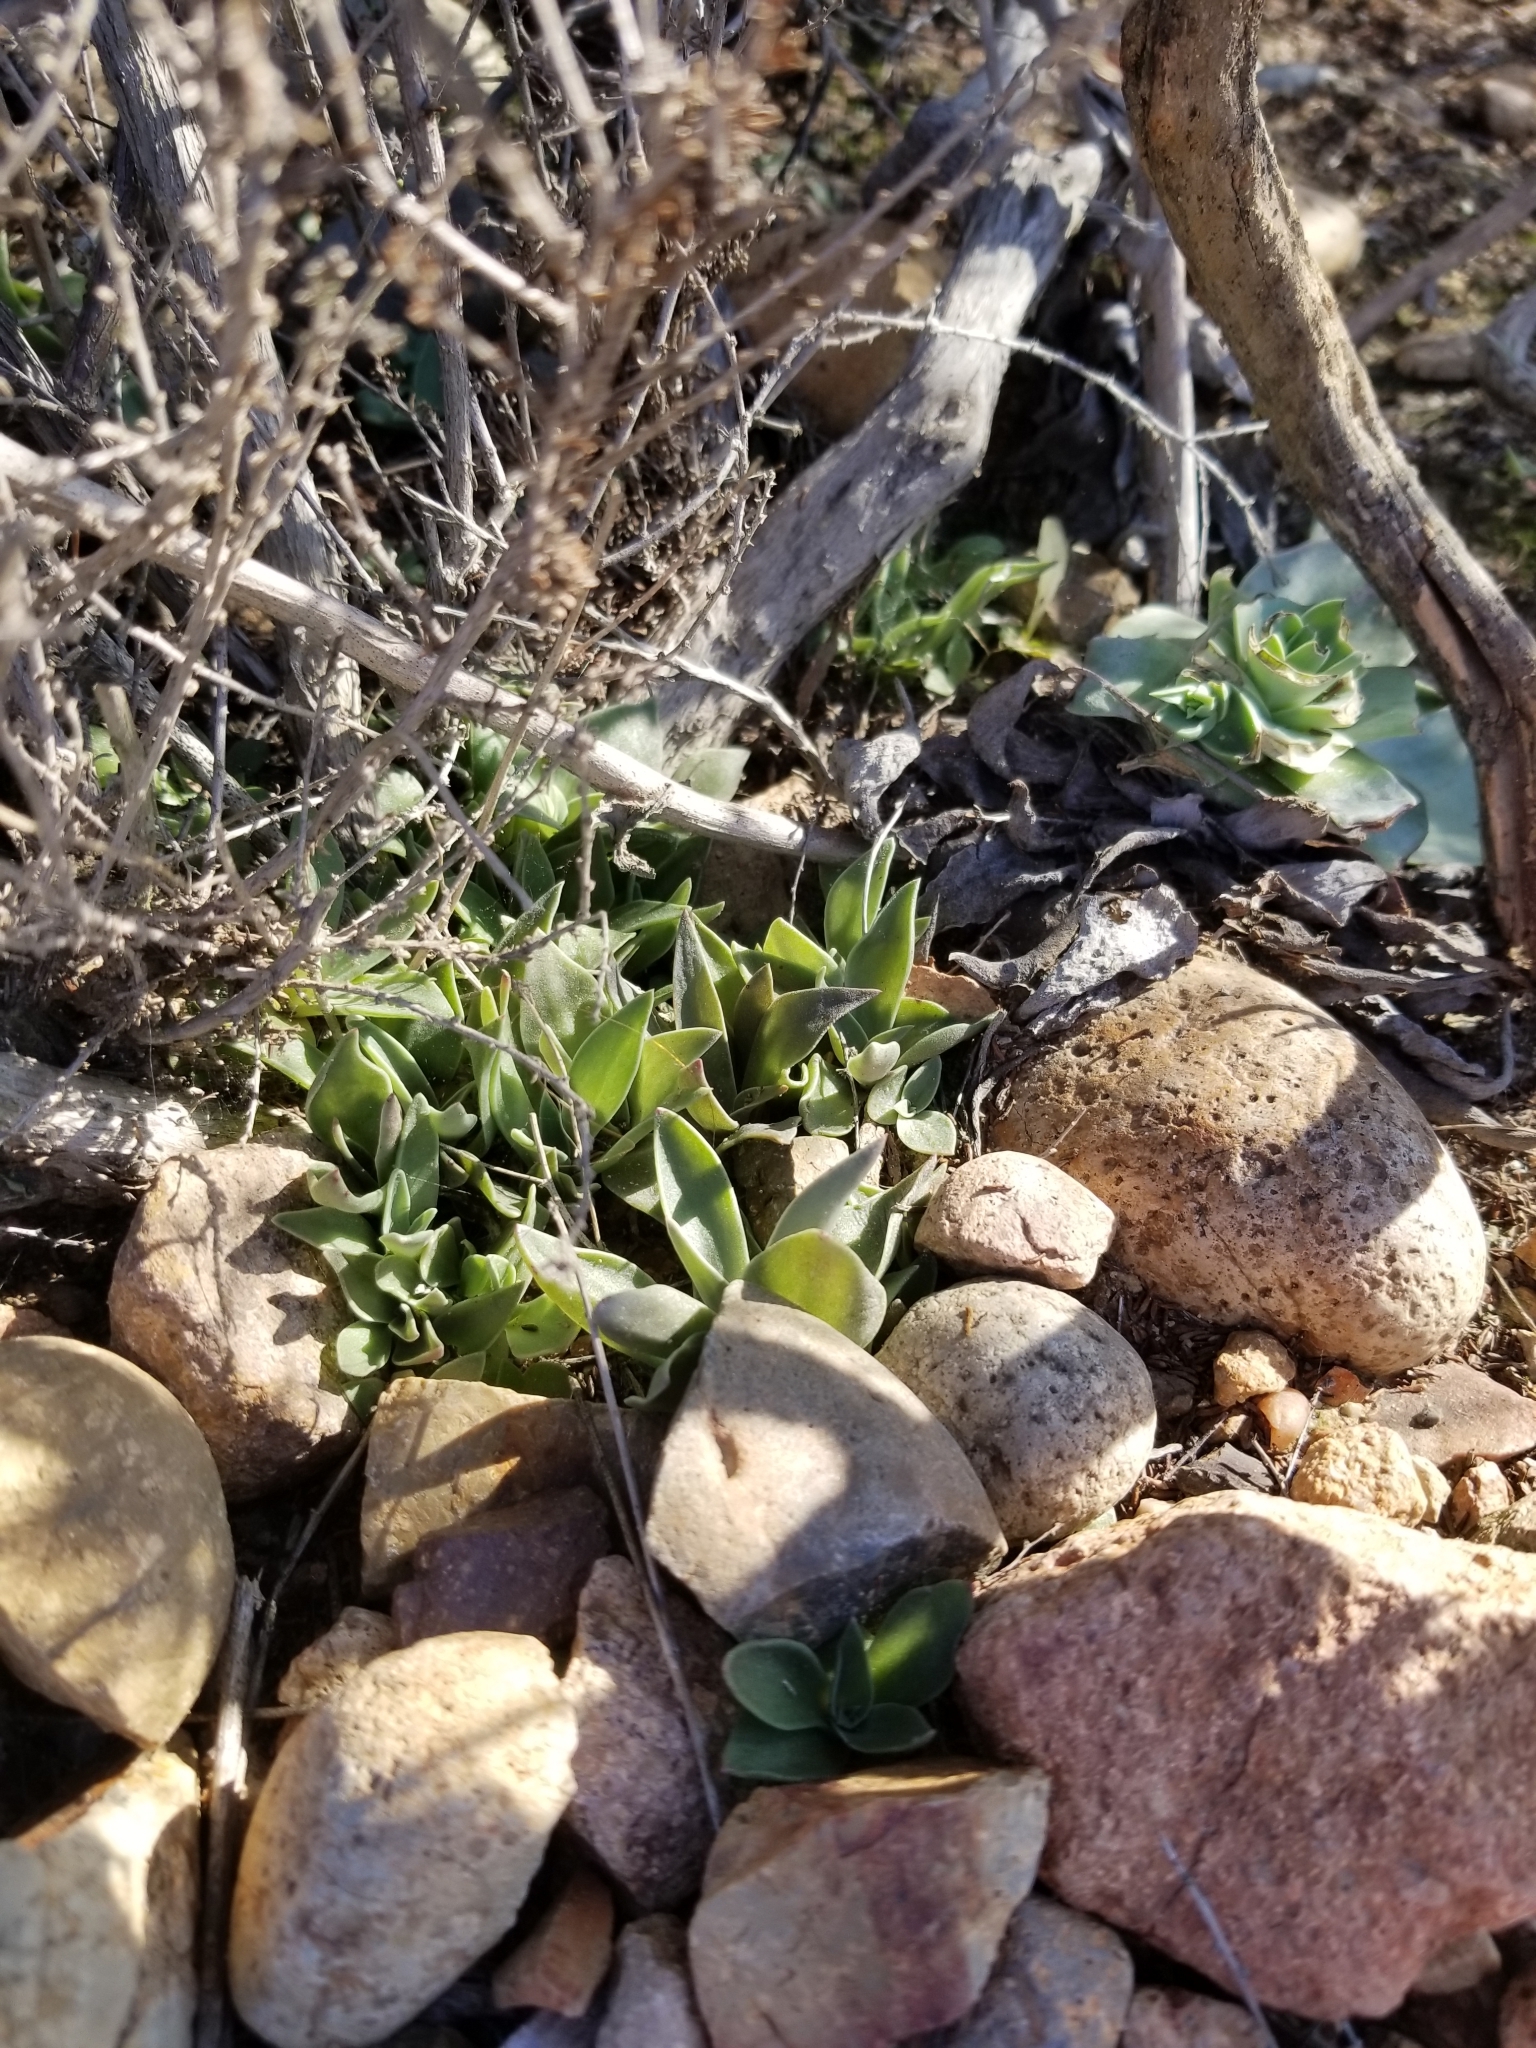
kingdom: Plantae
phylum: Tracheophyta
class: Magnoliopsida
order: Saxifragales
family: Crassulaceae
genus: Dudleya
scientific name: Dudleya lanceolata
